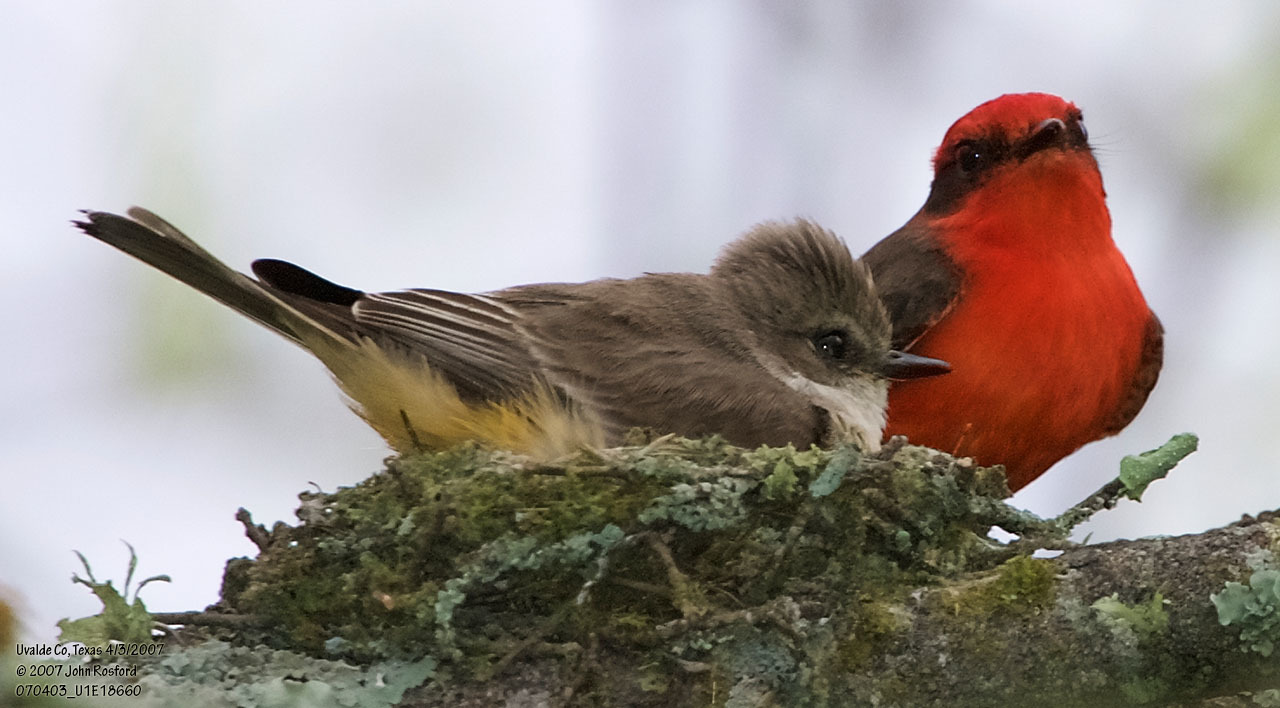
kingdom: Animalia
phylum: Chordata
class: Aves
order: Passeriformes
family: Tyrannidae
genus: Pyrocephalus
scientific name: Pyrocephalus rubinus
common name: Vermilion flycatcher
